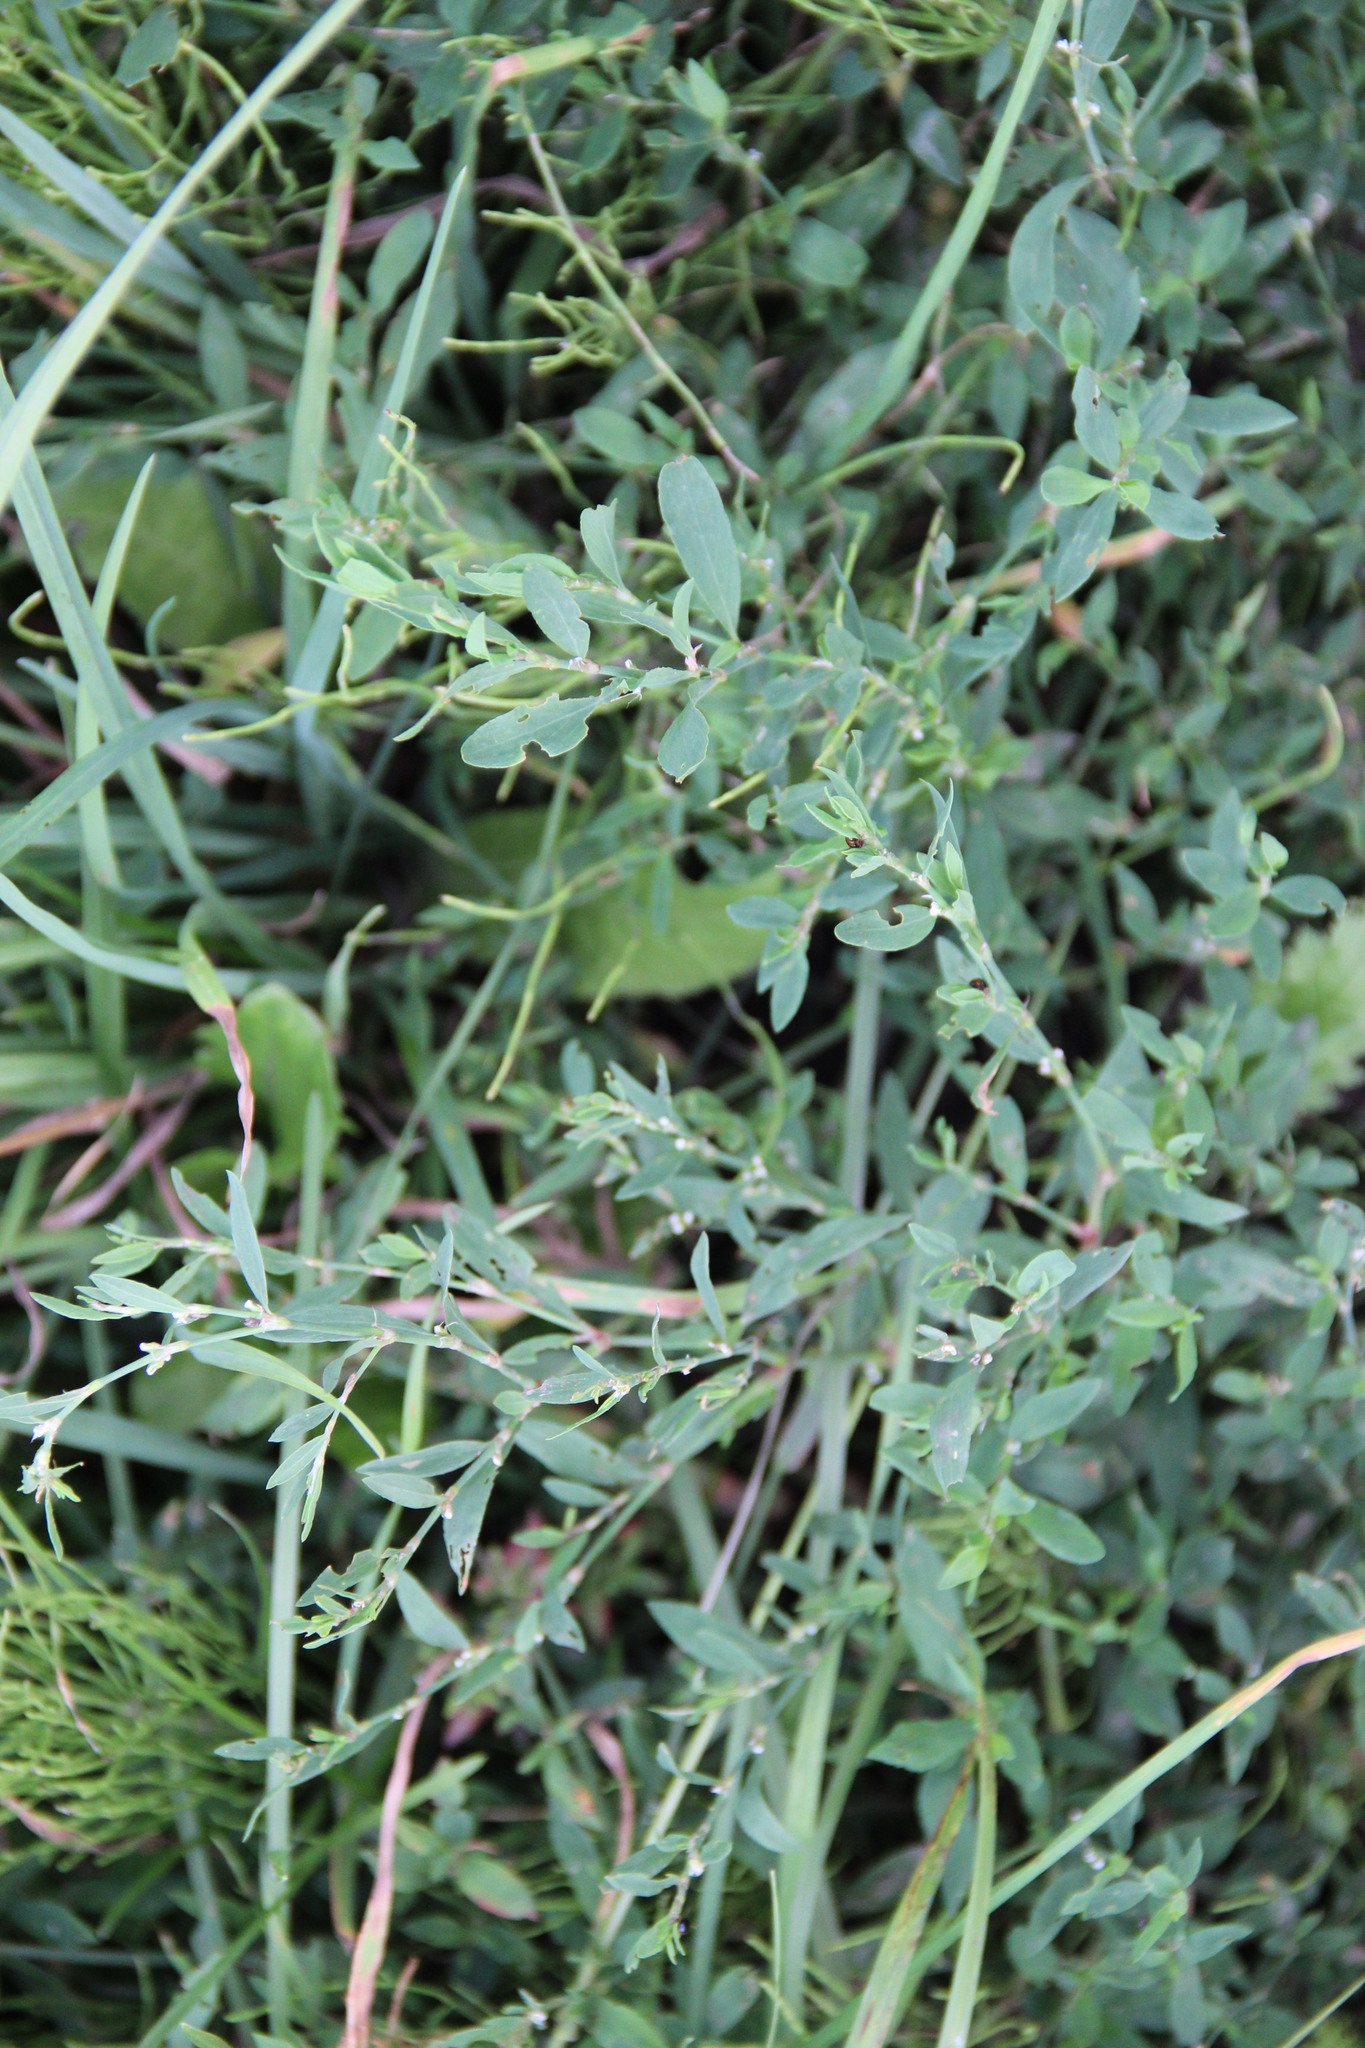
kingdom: Plantae
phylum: Tracheophyta
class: Magnoliopsida
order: Caryophyllales
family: Polygonaceae
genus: Polygonum
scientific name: Polygonum
